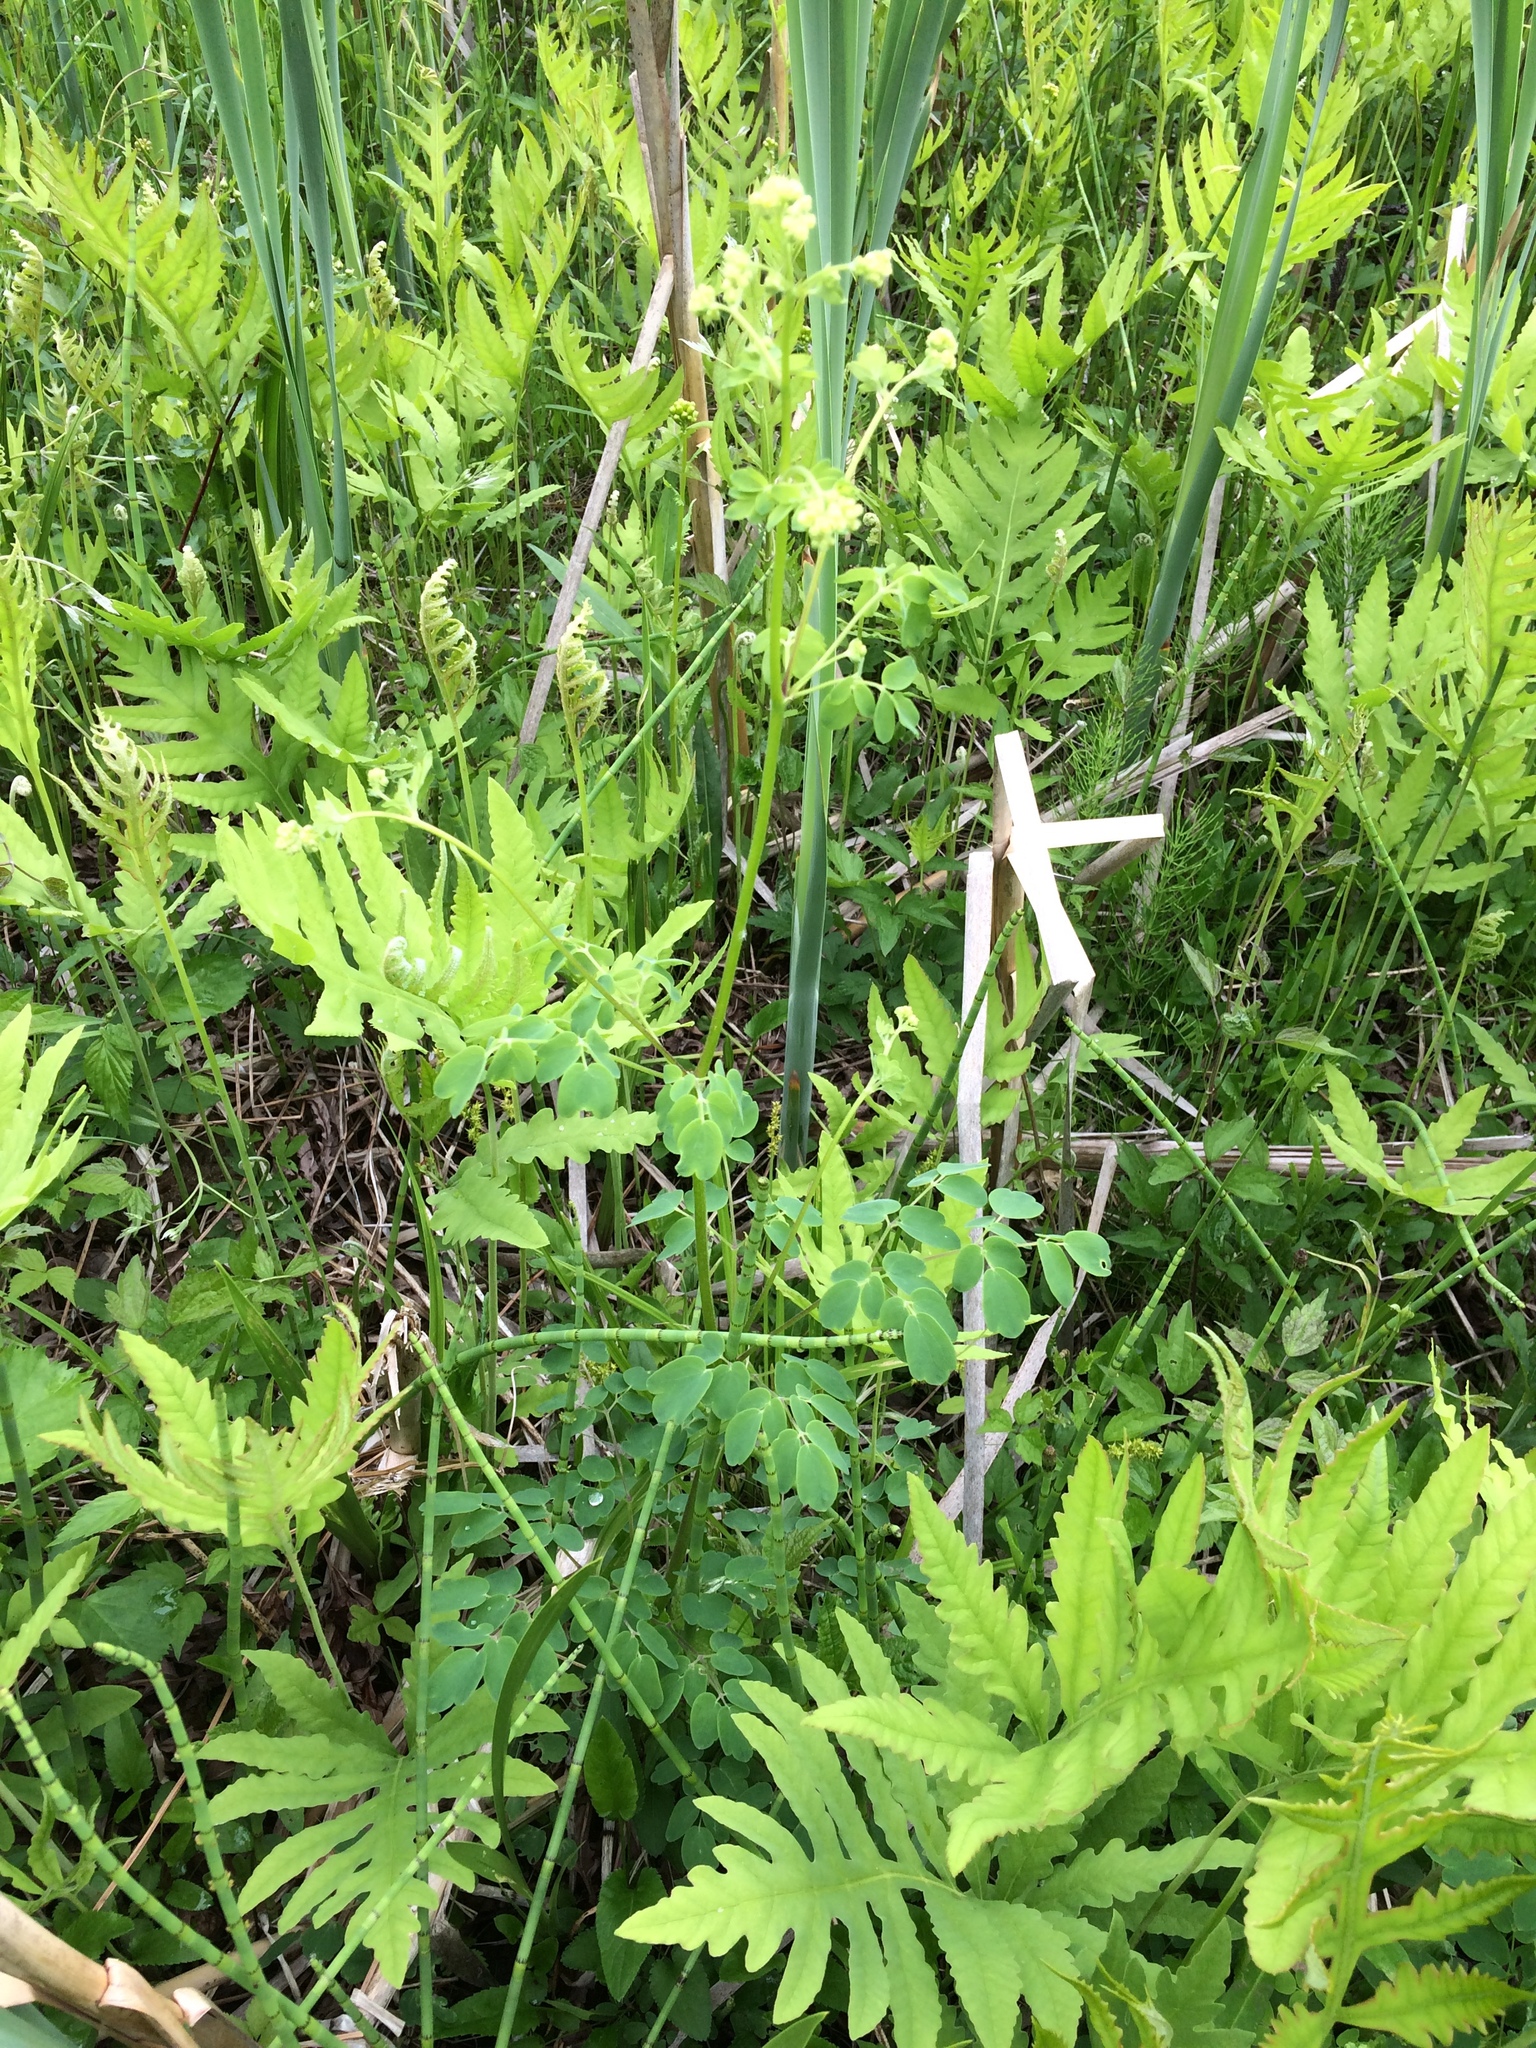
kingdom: Plantae
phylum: Tracheophyta
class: Magnoliopsida
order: Ranunculales
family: Ranunculaceae
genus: Thalictrum
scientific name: Thalictrum pubescens
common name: King-of-the-meadow
